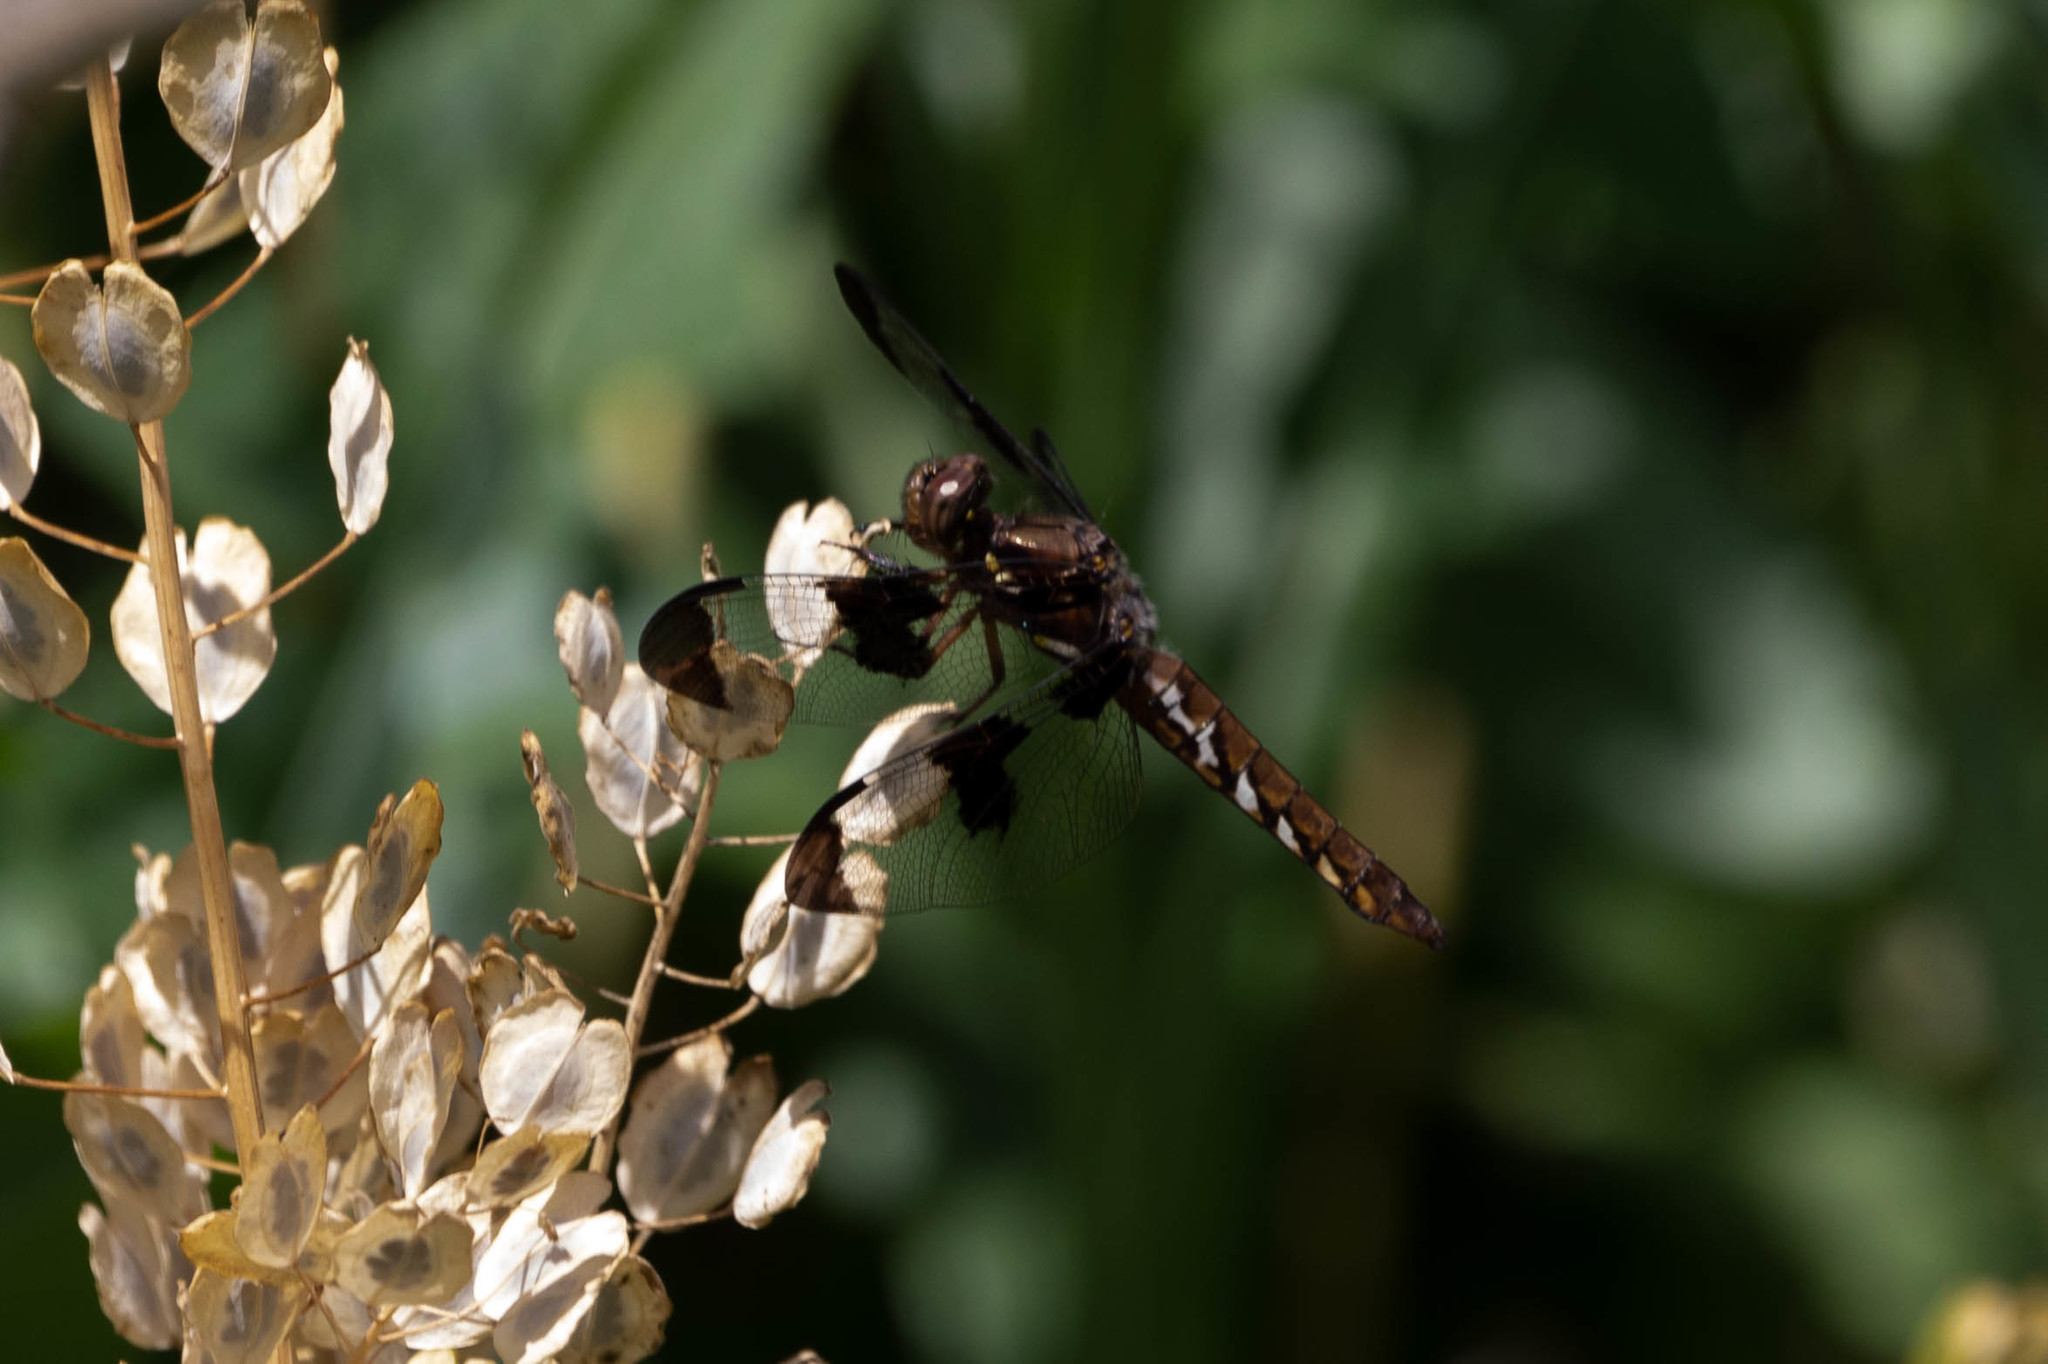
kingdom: Animalia
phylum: Arthropoda
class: Insecta
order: Odonata
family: Libellulidae
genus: Plathemis
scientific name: Plathemis lydia
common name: Common whitetail
